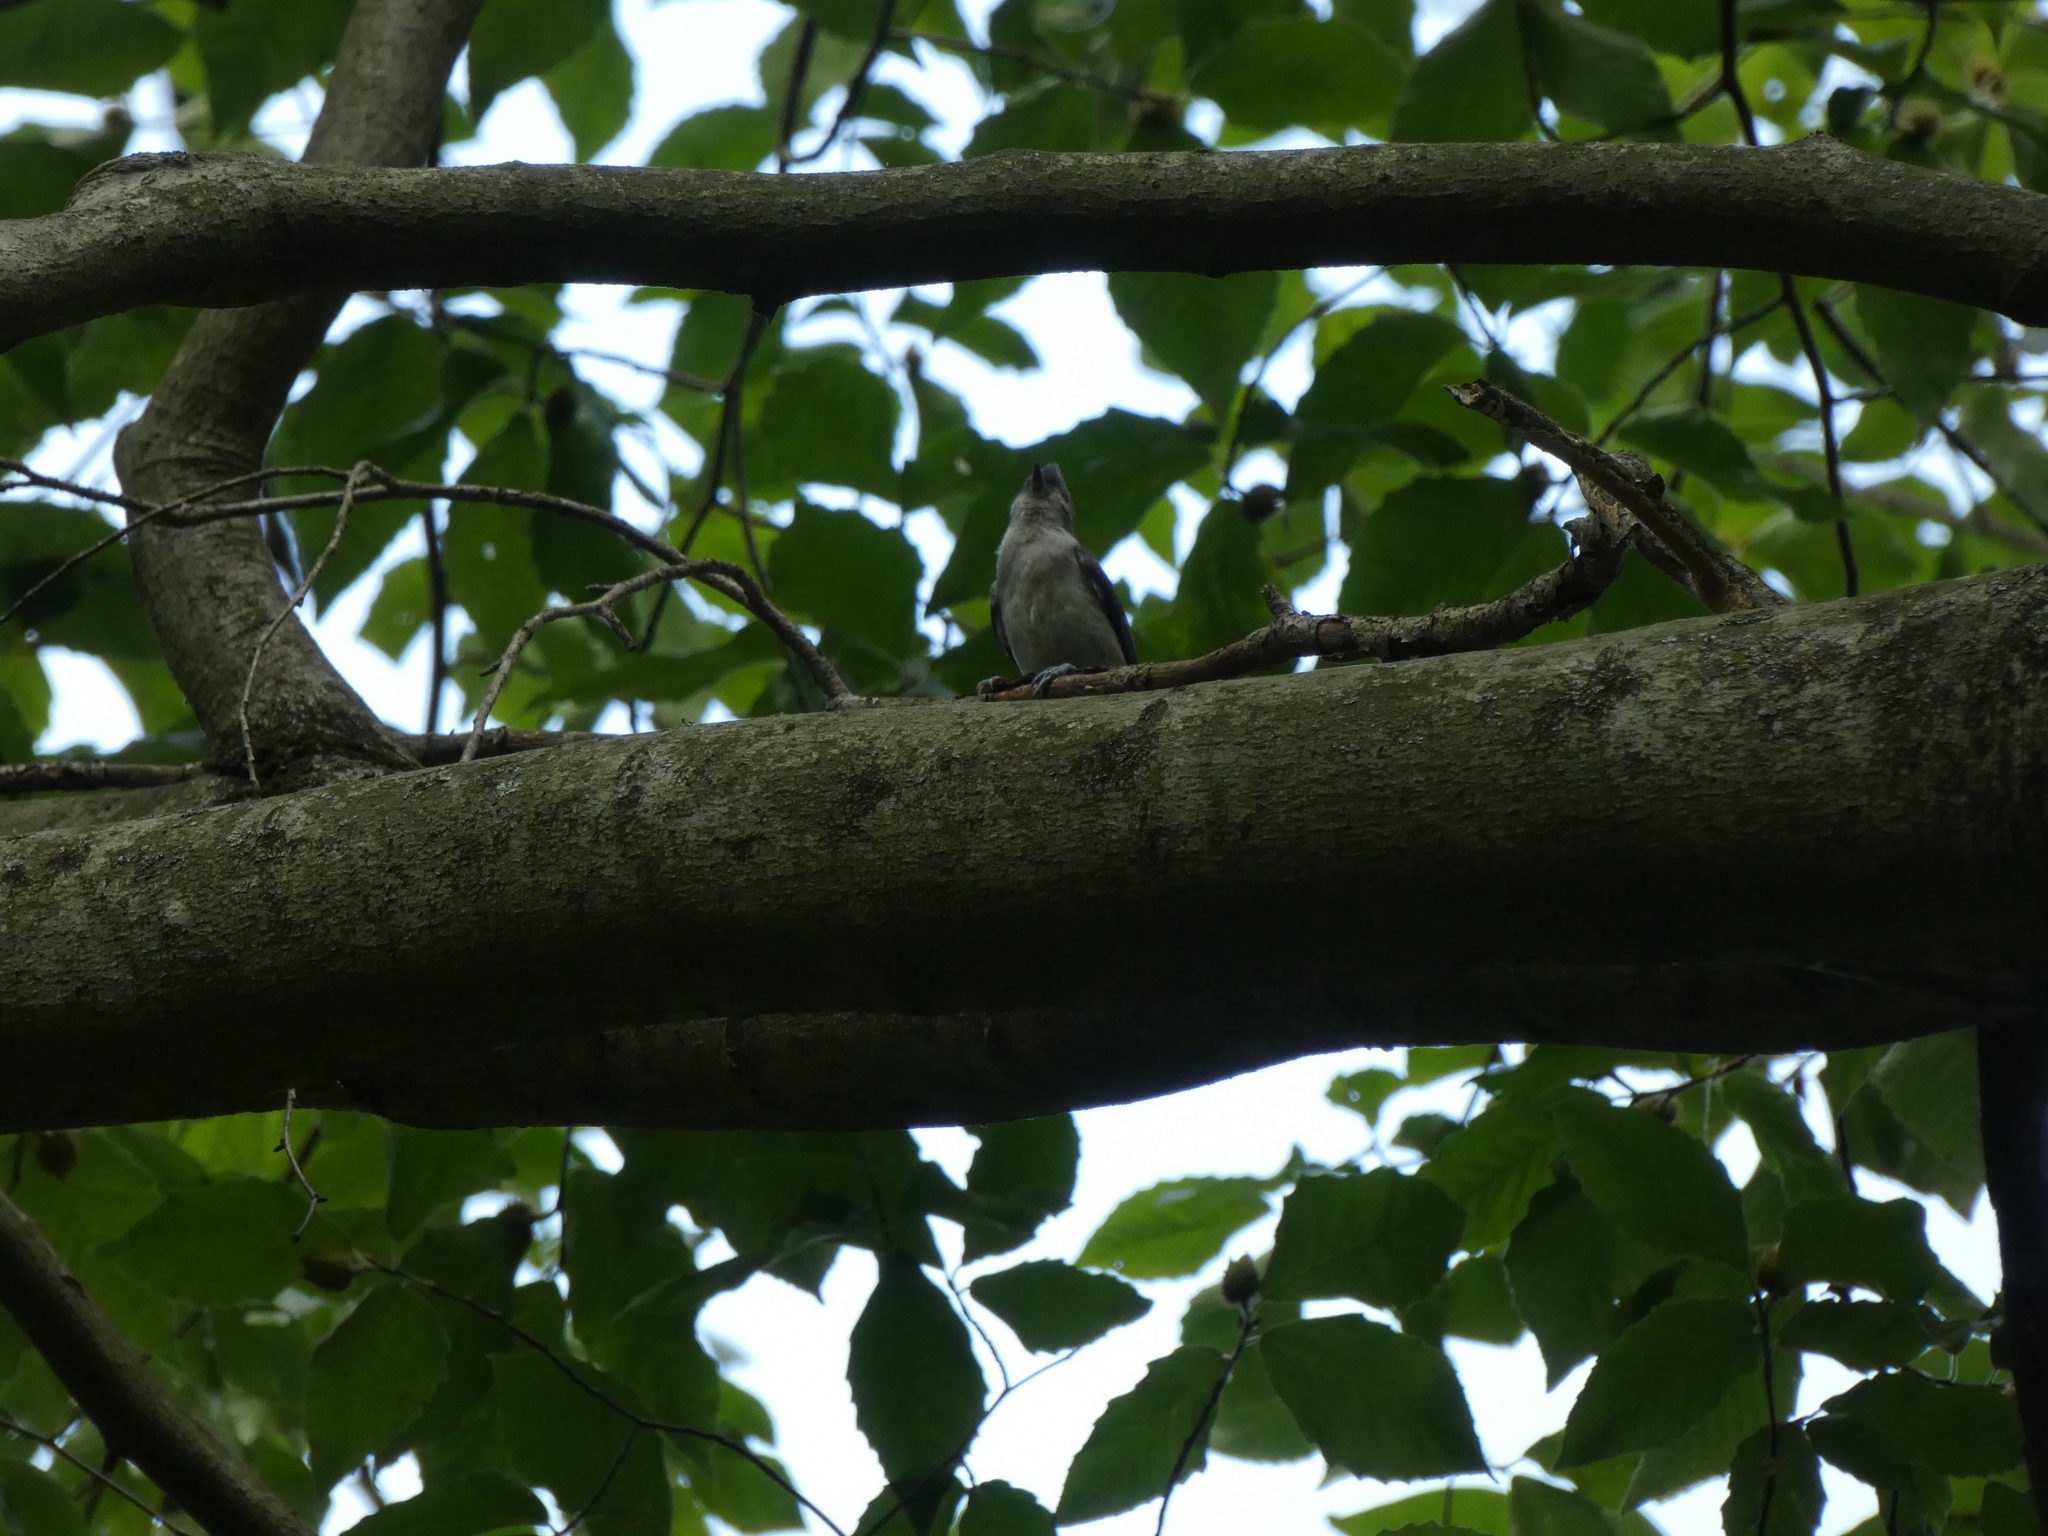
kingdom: Animalia
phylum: Chordata
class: Aves
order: Passeriformes
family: Paridae
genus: Baeolophus
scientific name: Baeolophus bicolor
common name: Tufted titmouse
